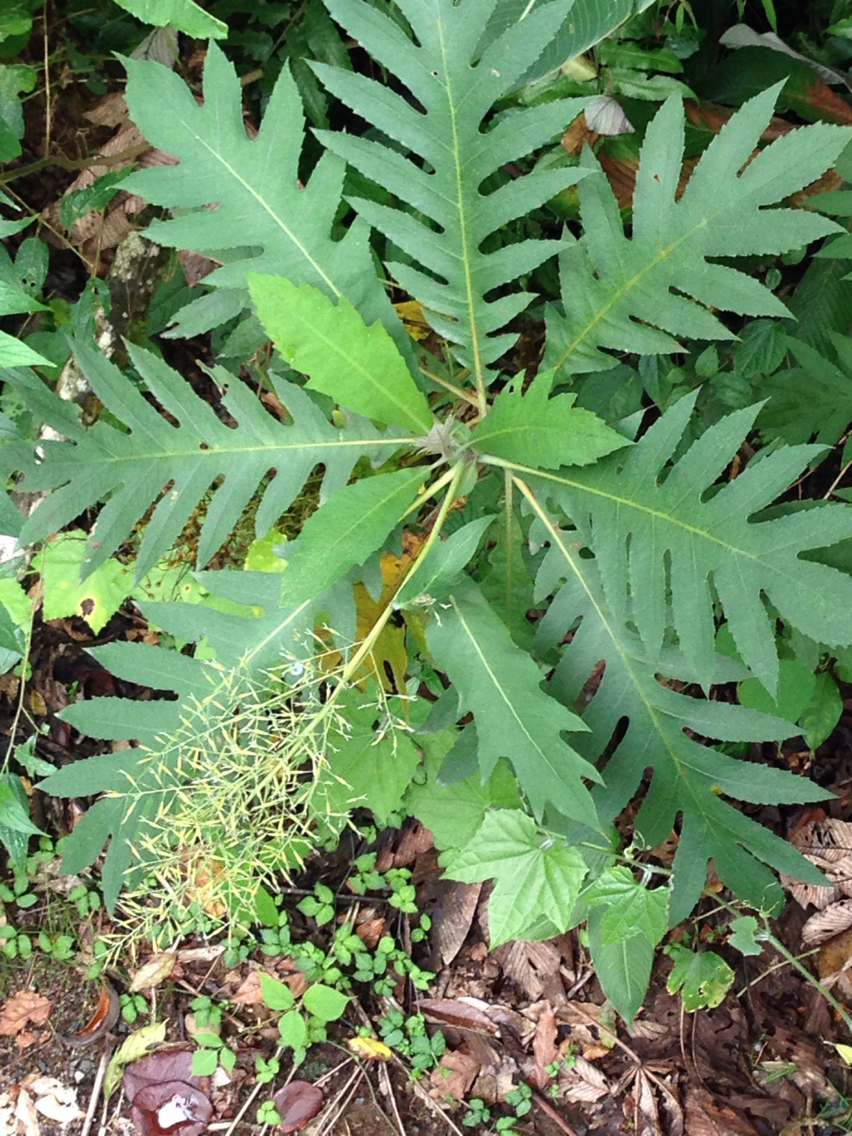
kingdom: Plantae
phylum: Tracheophyta
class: Magnoliopsida
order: Ranunculales
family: Papaveraceae
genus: Bocconia
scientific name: Bocconia frutescens
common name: Tree poppy
